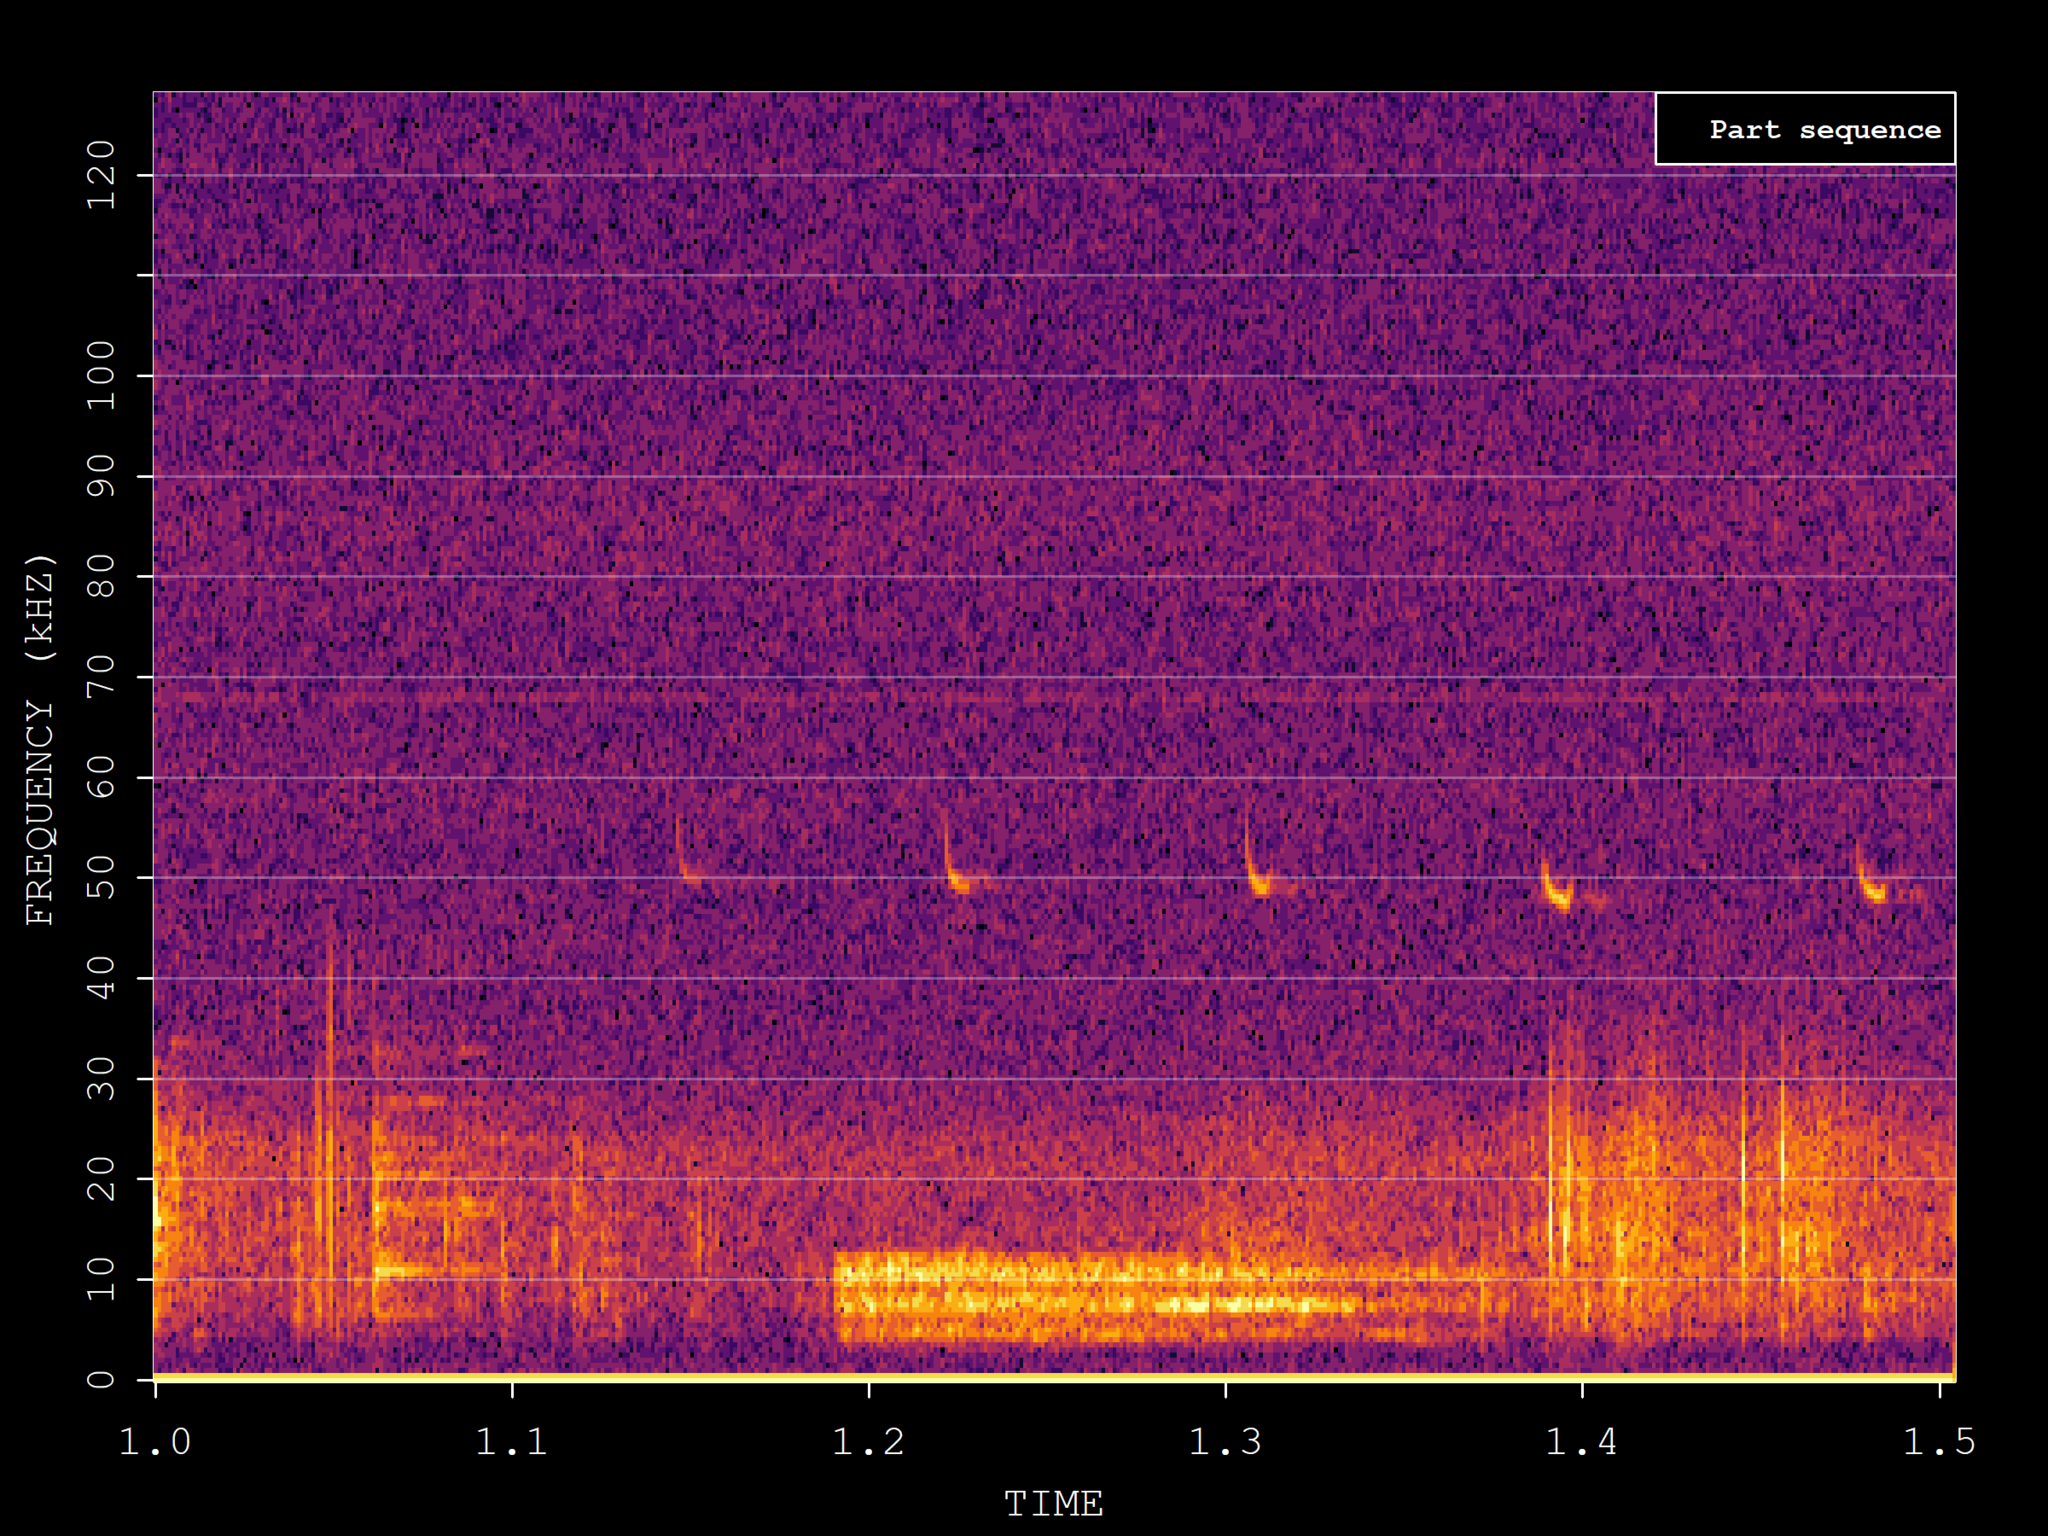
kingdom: Animalia
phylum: Chordata
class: Mammalia
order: Chiroptera
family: Vespertilionidae
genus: Pipistrellus
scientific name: Pipistrellus pipistrellus
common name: Common pipistrelle
